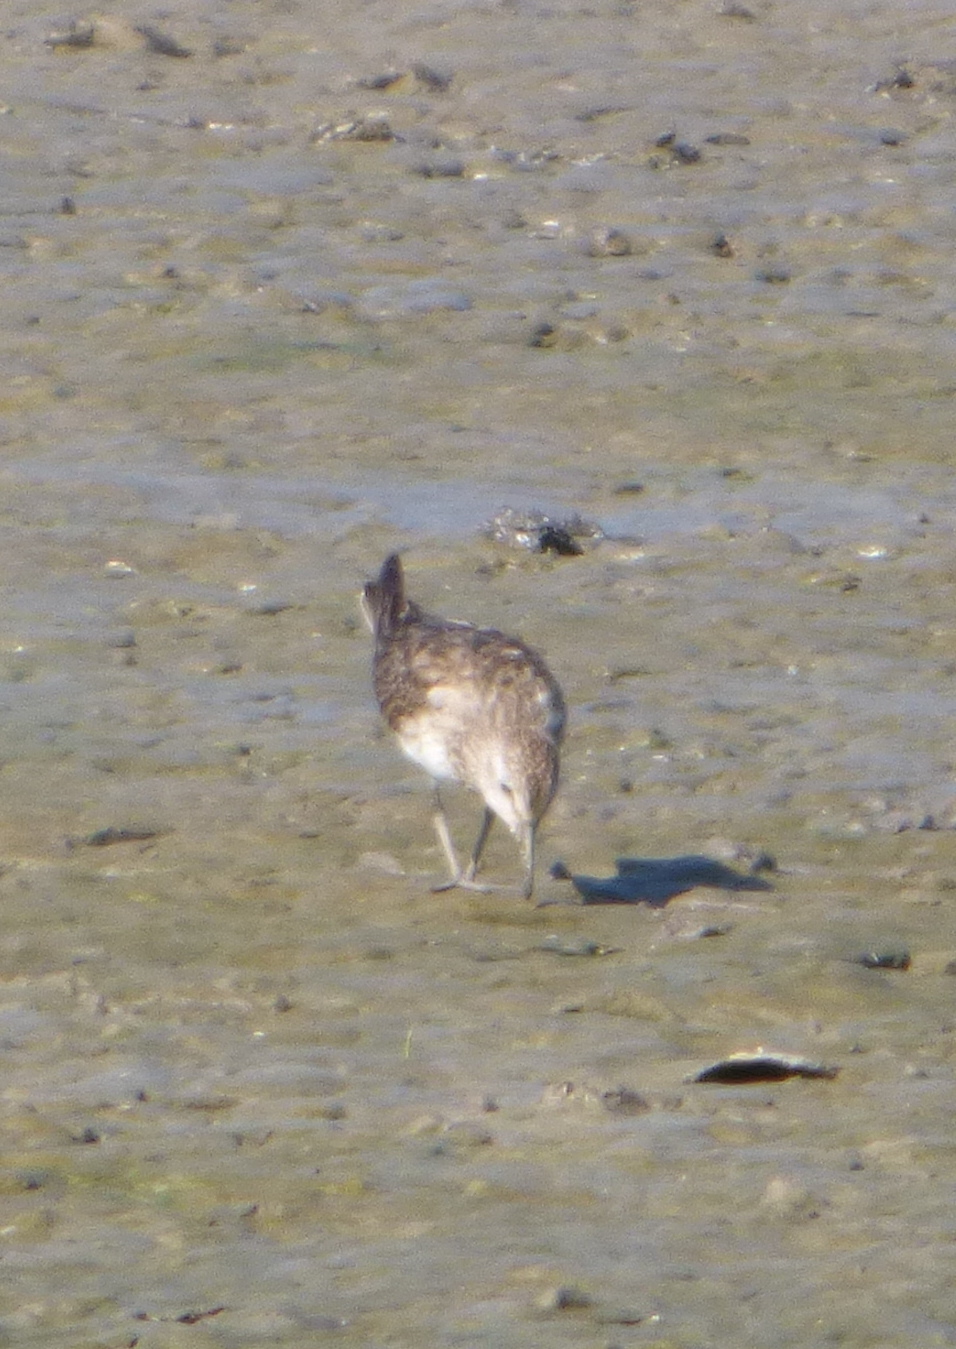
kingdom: Animalia
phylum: Chordata
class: Aves
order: Charadriiformes
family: Scolopacidae
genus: Calidris
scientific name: Calidris bairdii
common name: Baird's sandpiper
